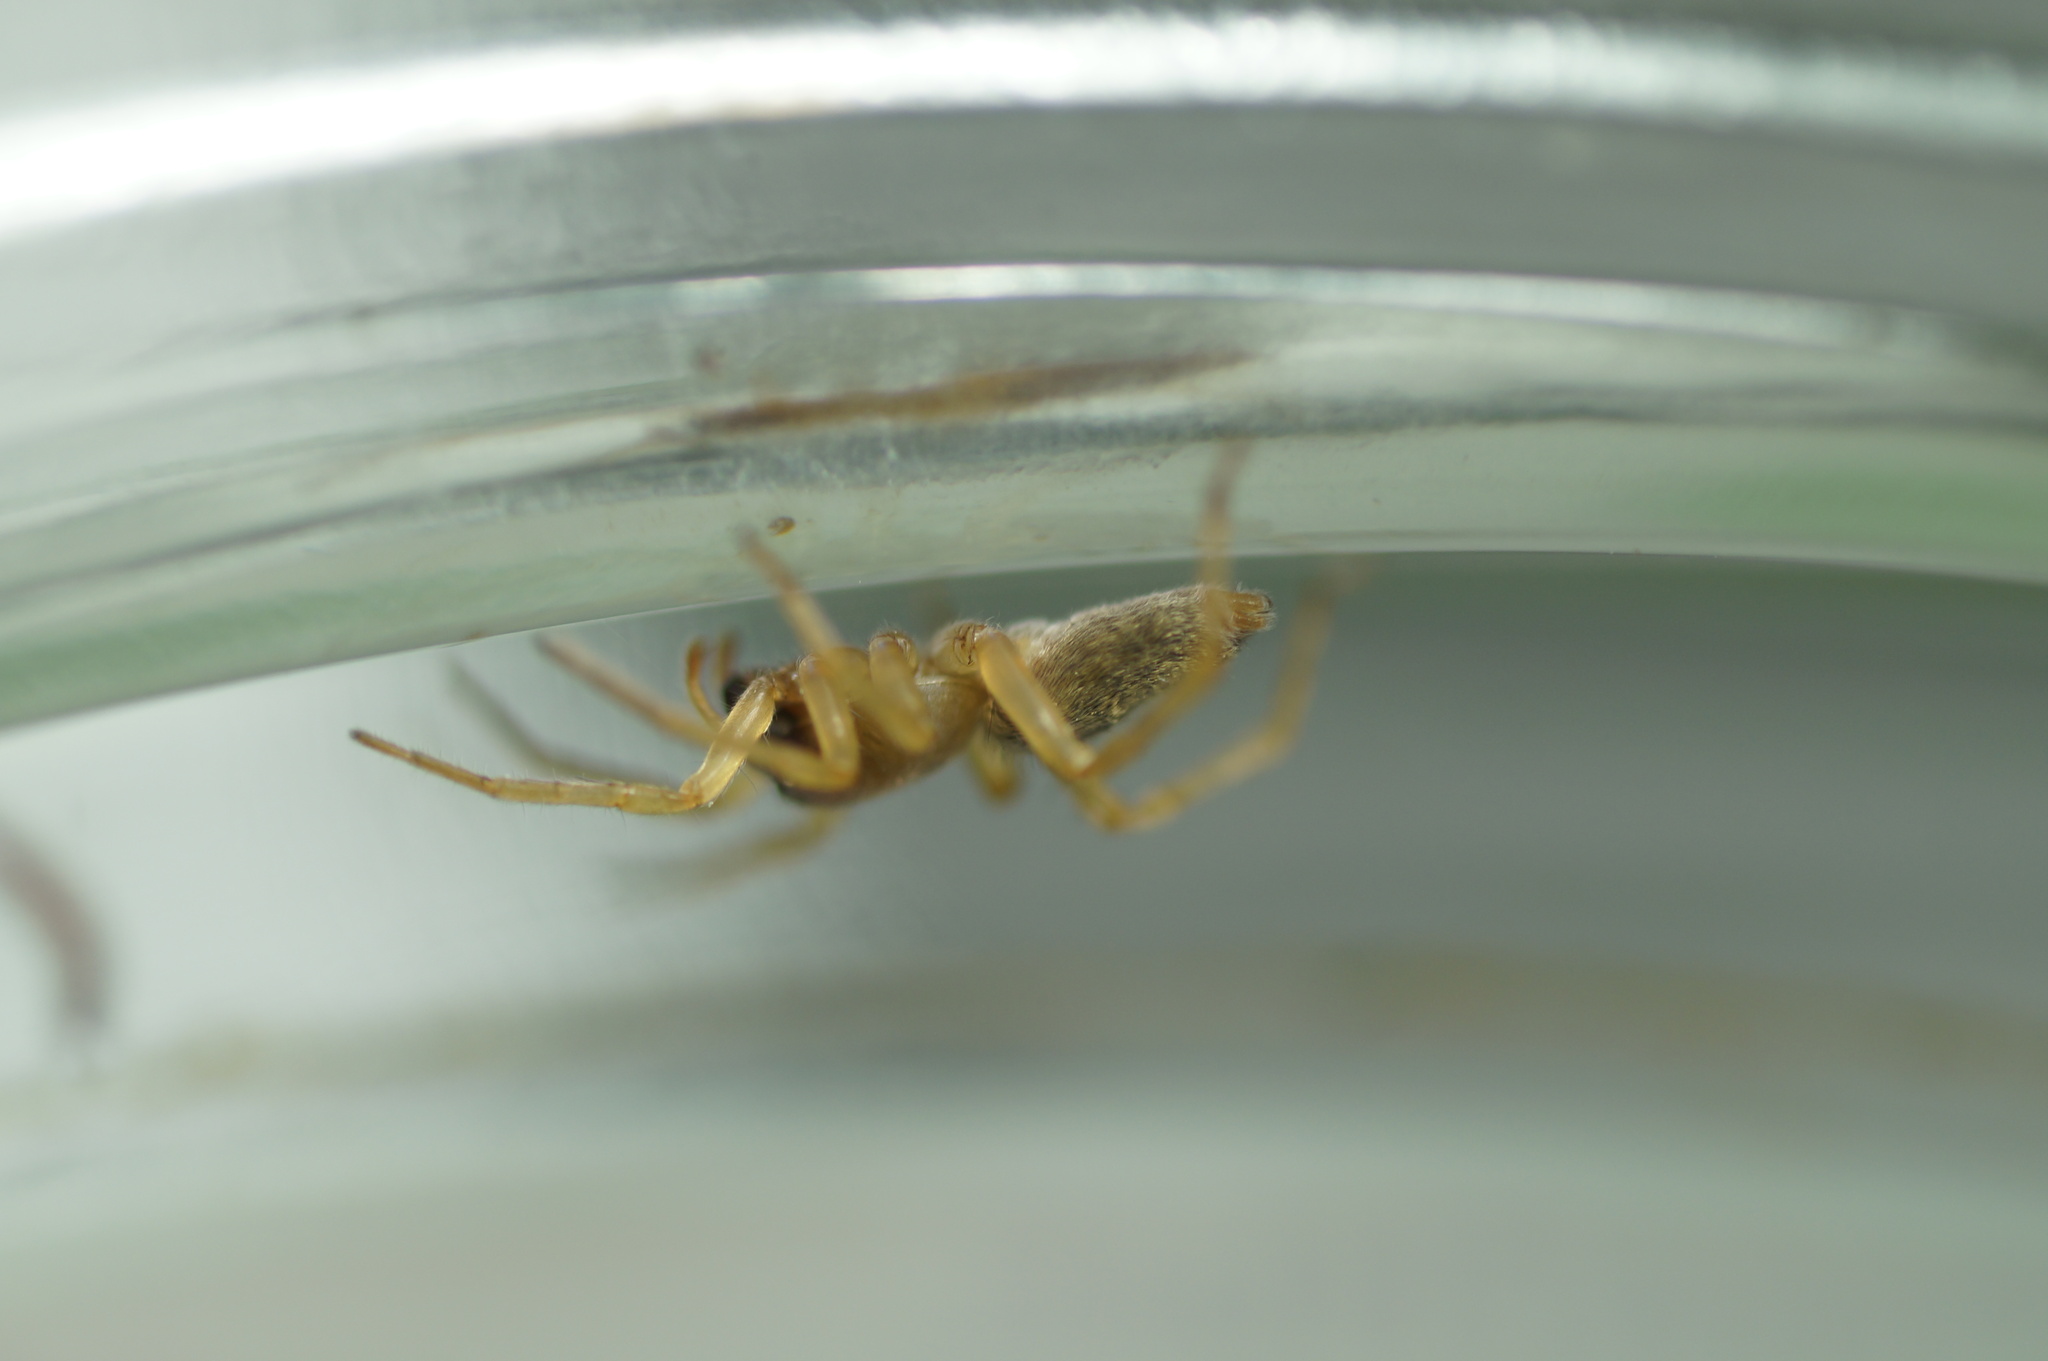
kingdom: Animalia
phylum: Arthropoda
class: Arachnida
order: Araneae
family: Clubionidae
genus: Clubiona
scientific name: Clubiona lutescens
